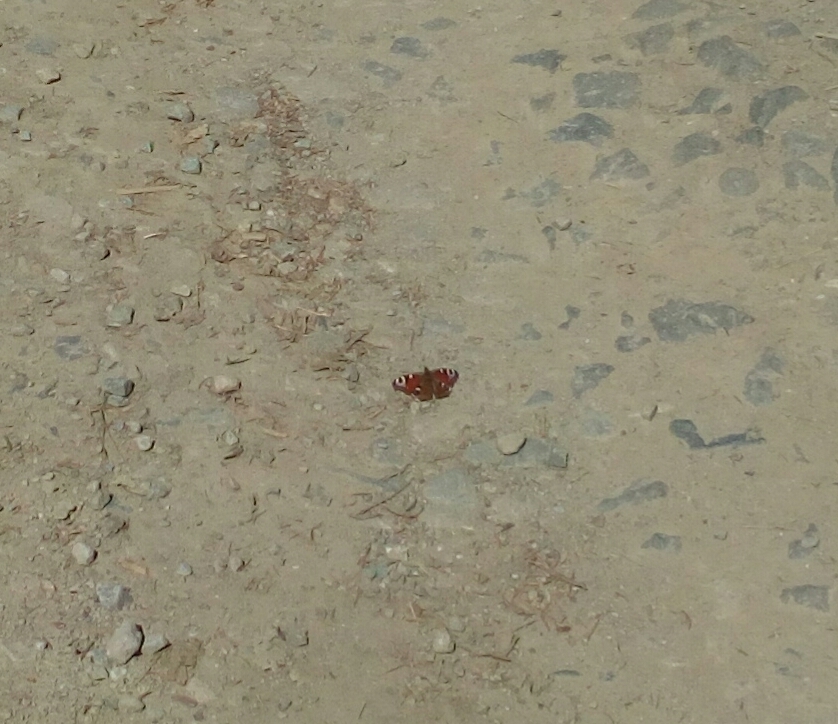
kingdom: Animalia
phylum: Arthropoda
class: Insecta
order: Lepidoptera
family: Nymphalidae
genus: Aglais
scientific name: Aglais io
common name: Peacock
